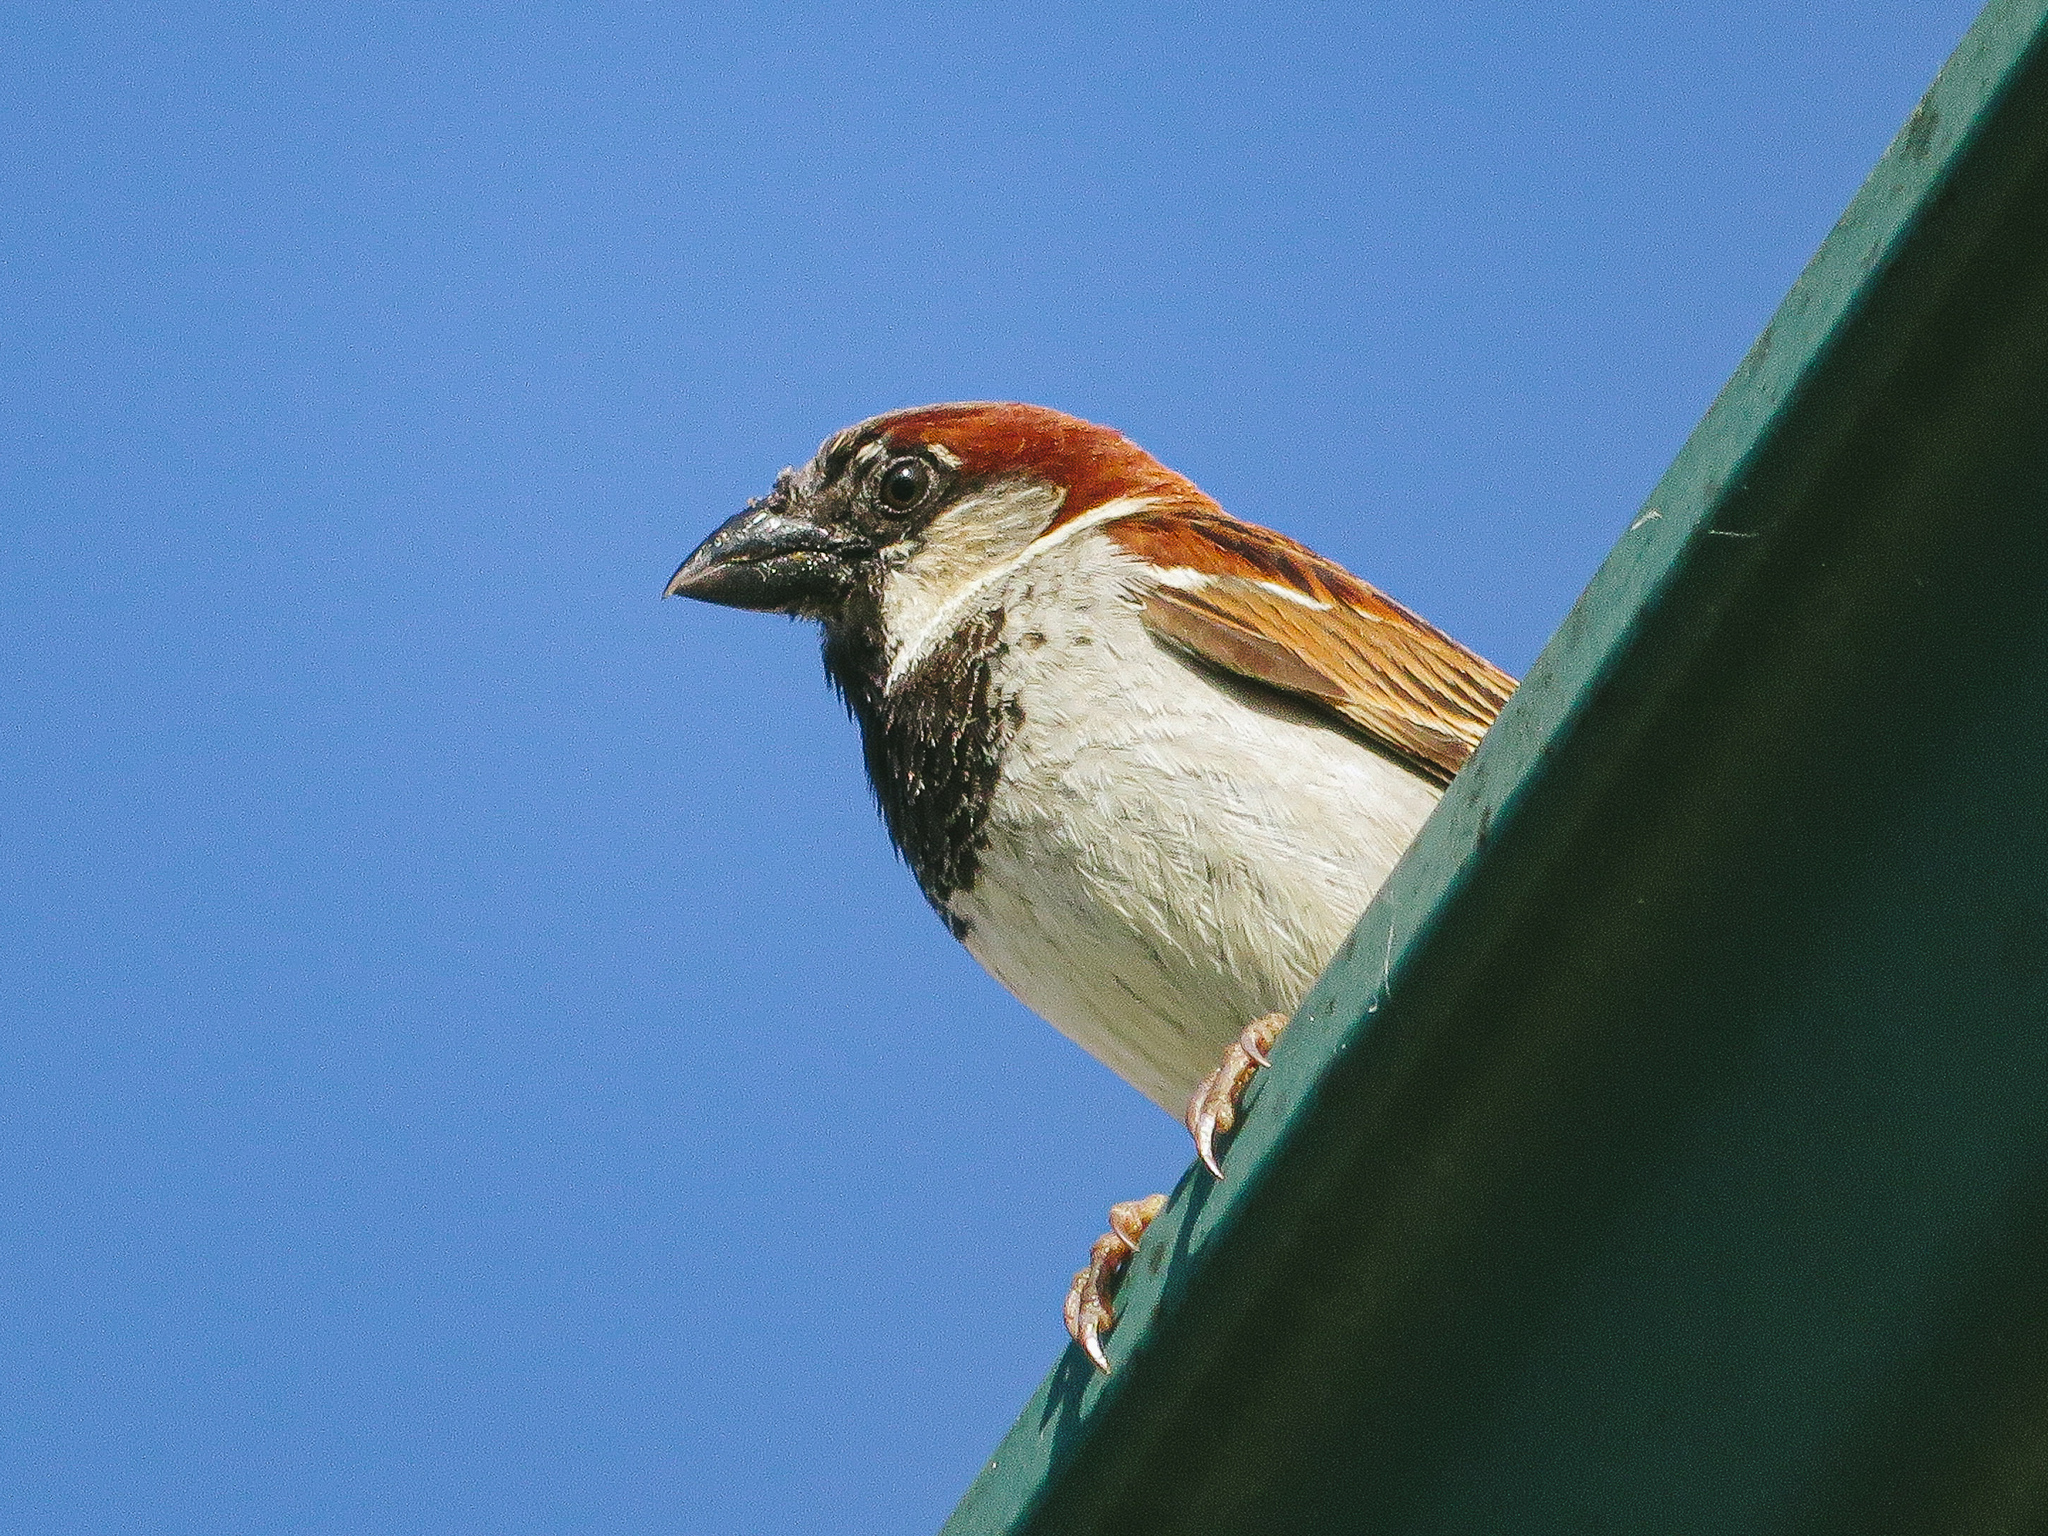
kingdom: Animalia
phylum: Chordata
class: Aves
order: Passeriformes
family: Passeridae
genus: Passer
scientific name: Passer domesticus
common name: House sparrow
